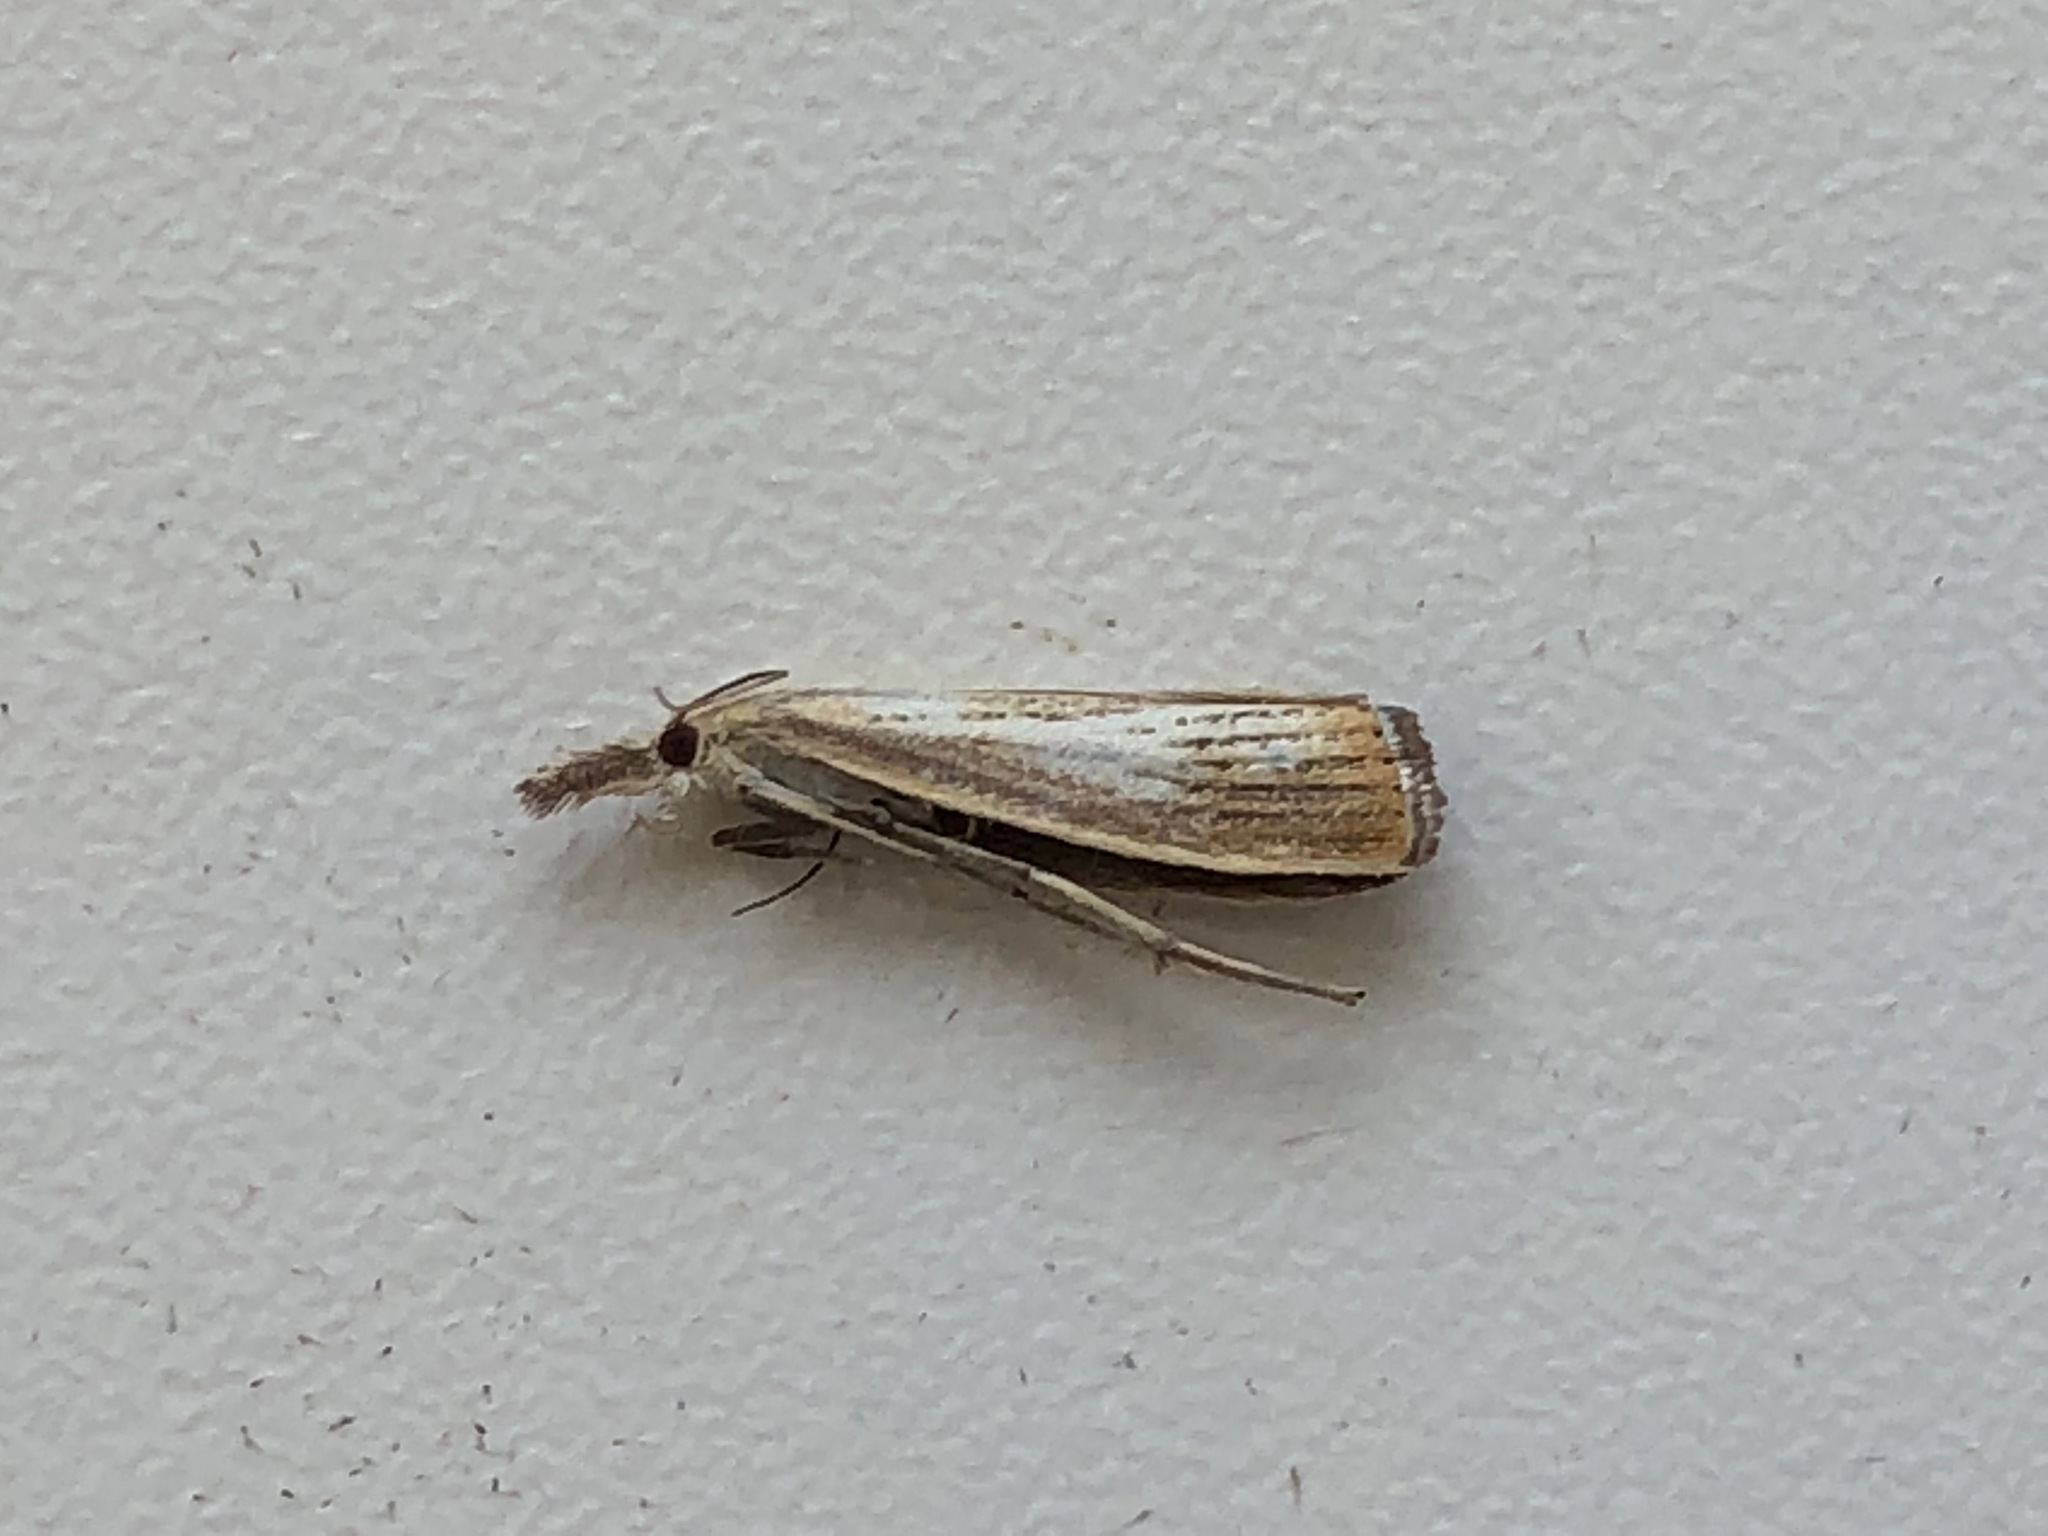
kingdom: Animalia
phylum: Arthropoda
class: Insecta
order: Lepidoptera
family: Crambidae
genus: Agriphila
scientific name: Agriphila straminella
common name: Straw grass-veneer
